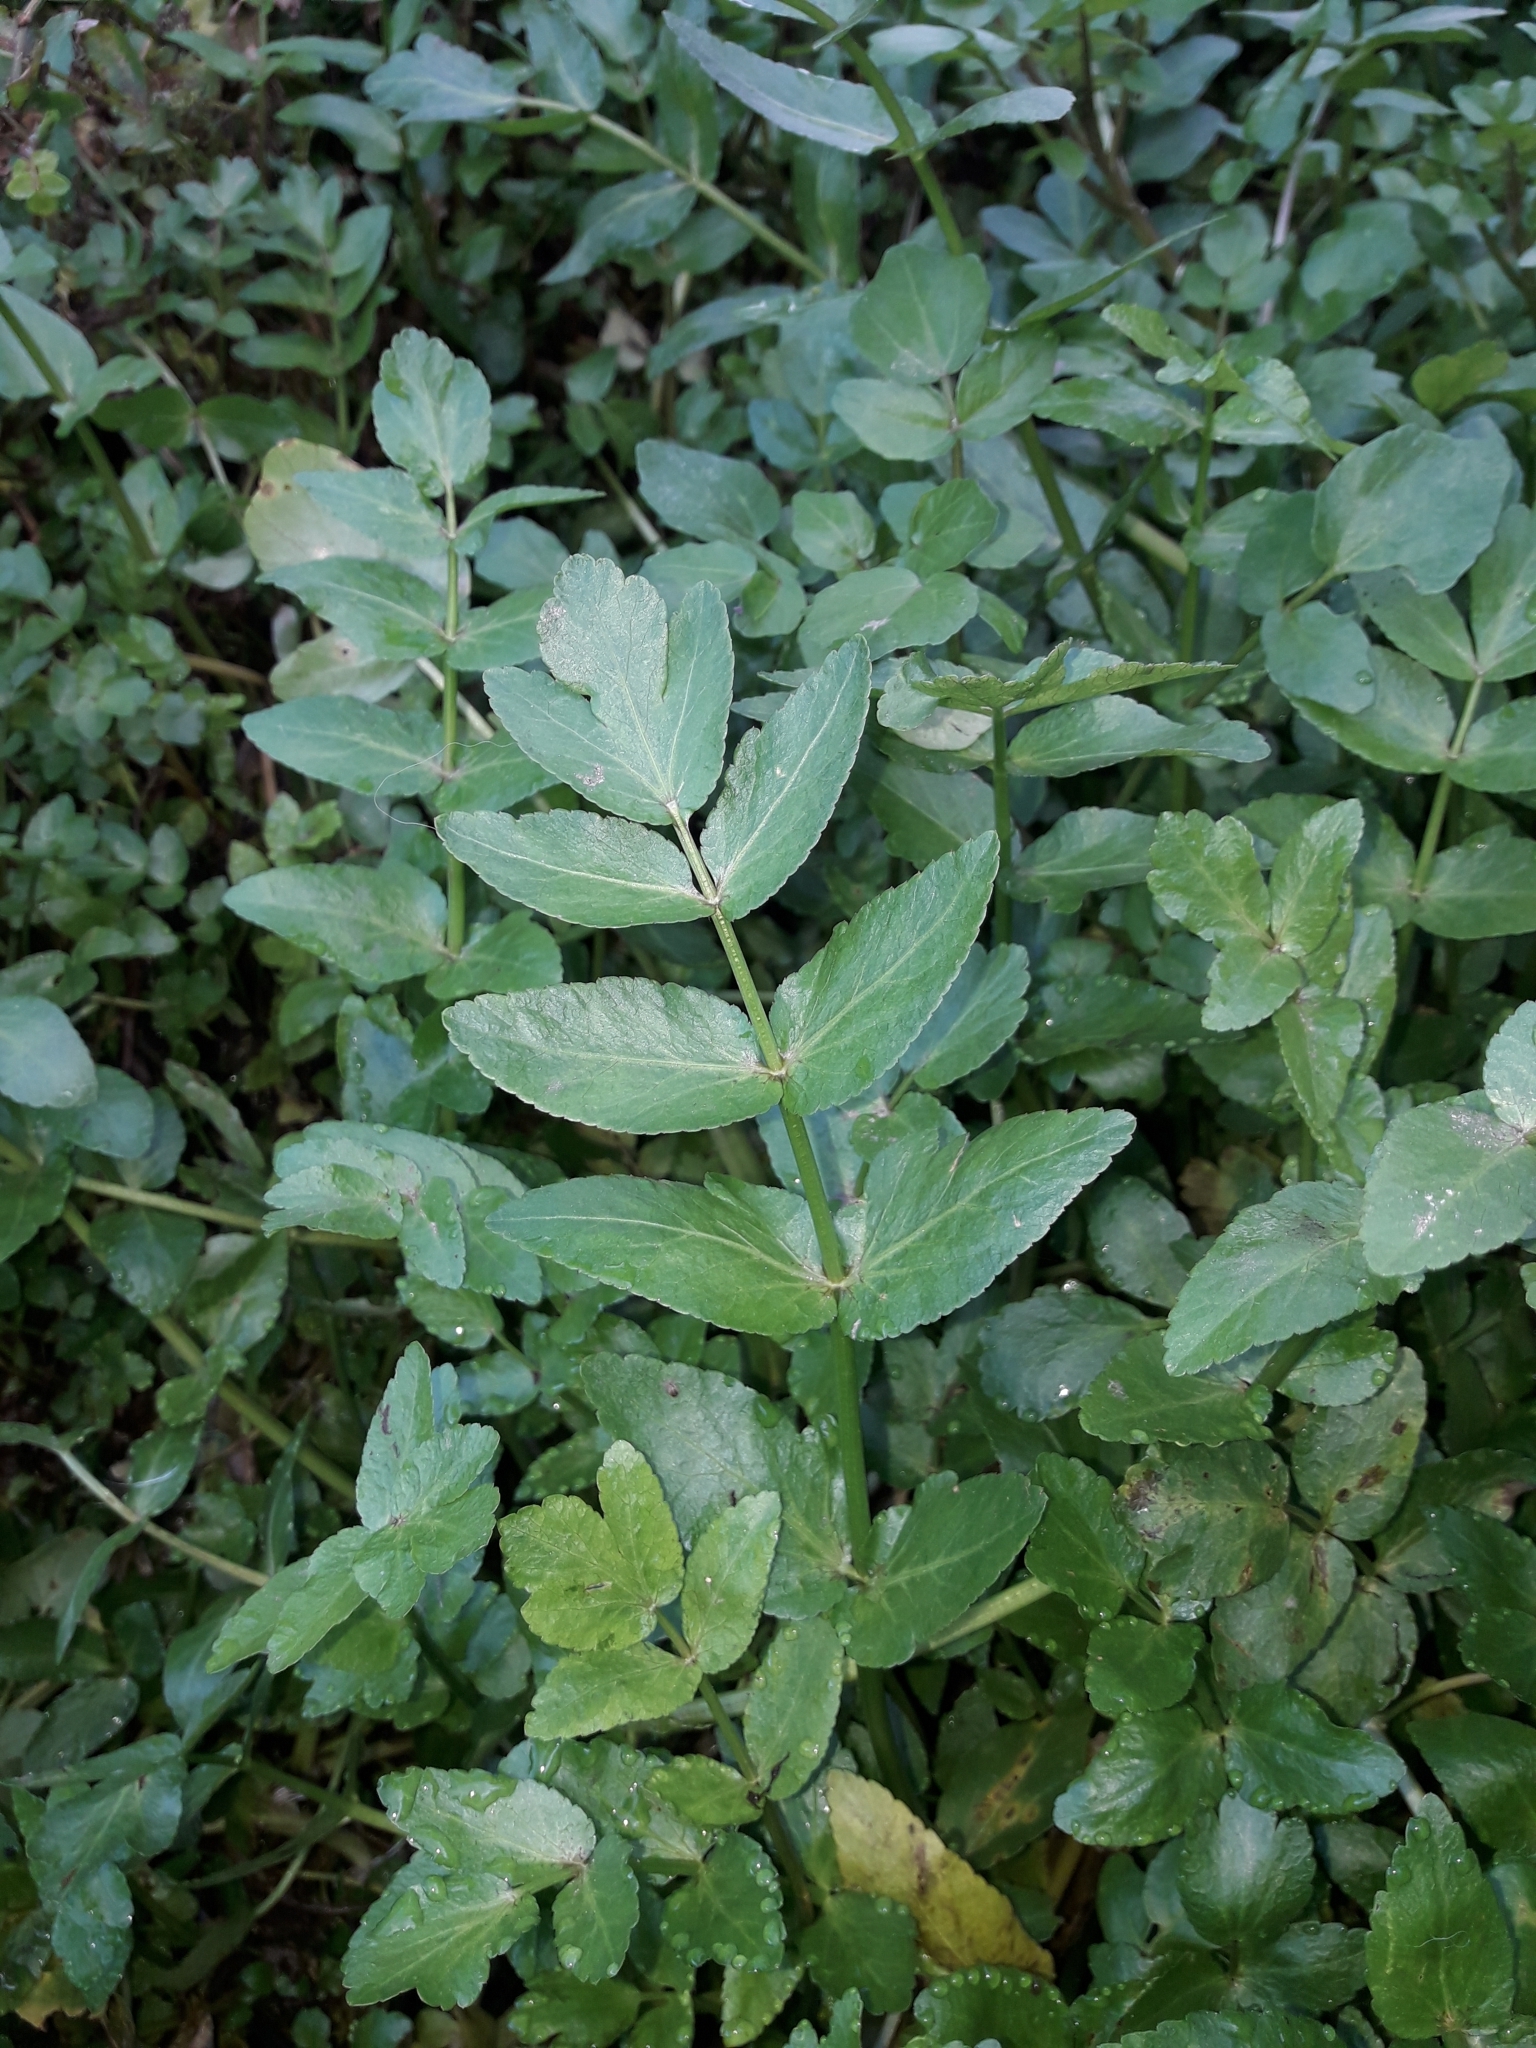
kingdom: Plantae
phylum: Tracheophyta
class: Magnoliopsida
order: Apiales
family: Apiaceae
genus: Helosciadium
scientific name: Helosciadium nodiflorum
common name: Fool's-watercress
